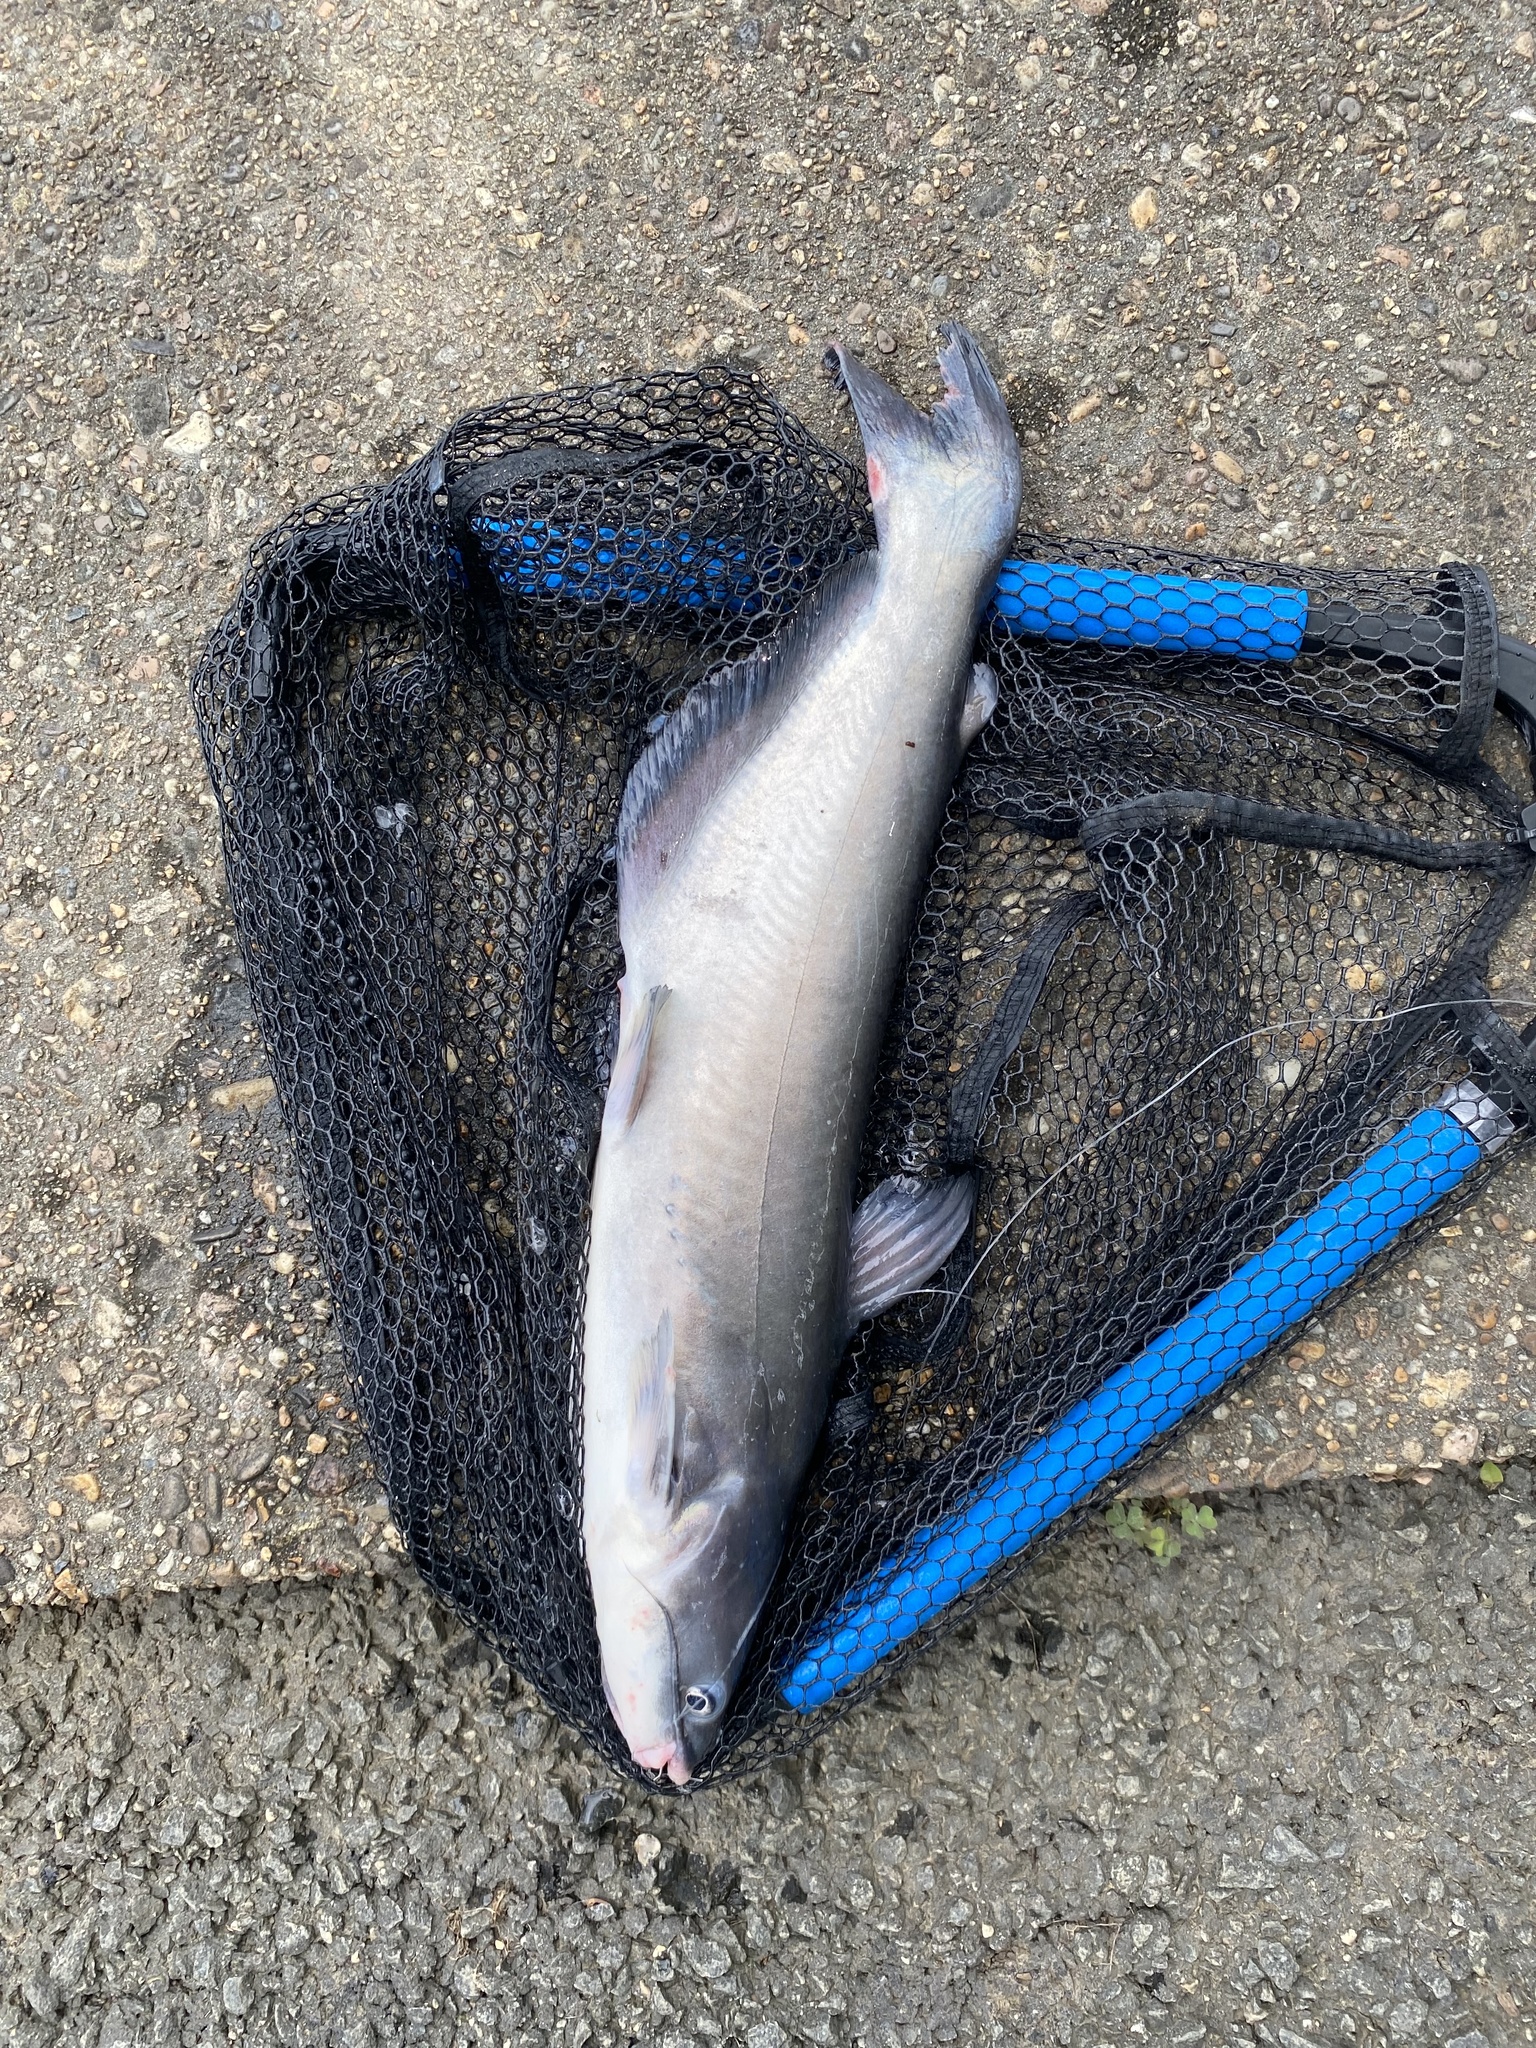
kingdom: Animalia
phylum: Chordata
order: Siluriformes
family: Ictaluridae
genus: Ictalurus
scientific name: Ictalurus furcatus
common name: Blue catfish
